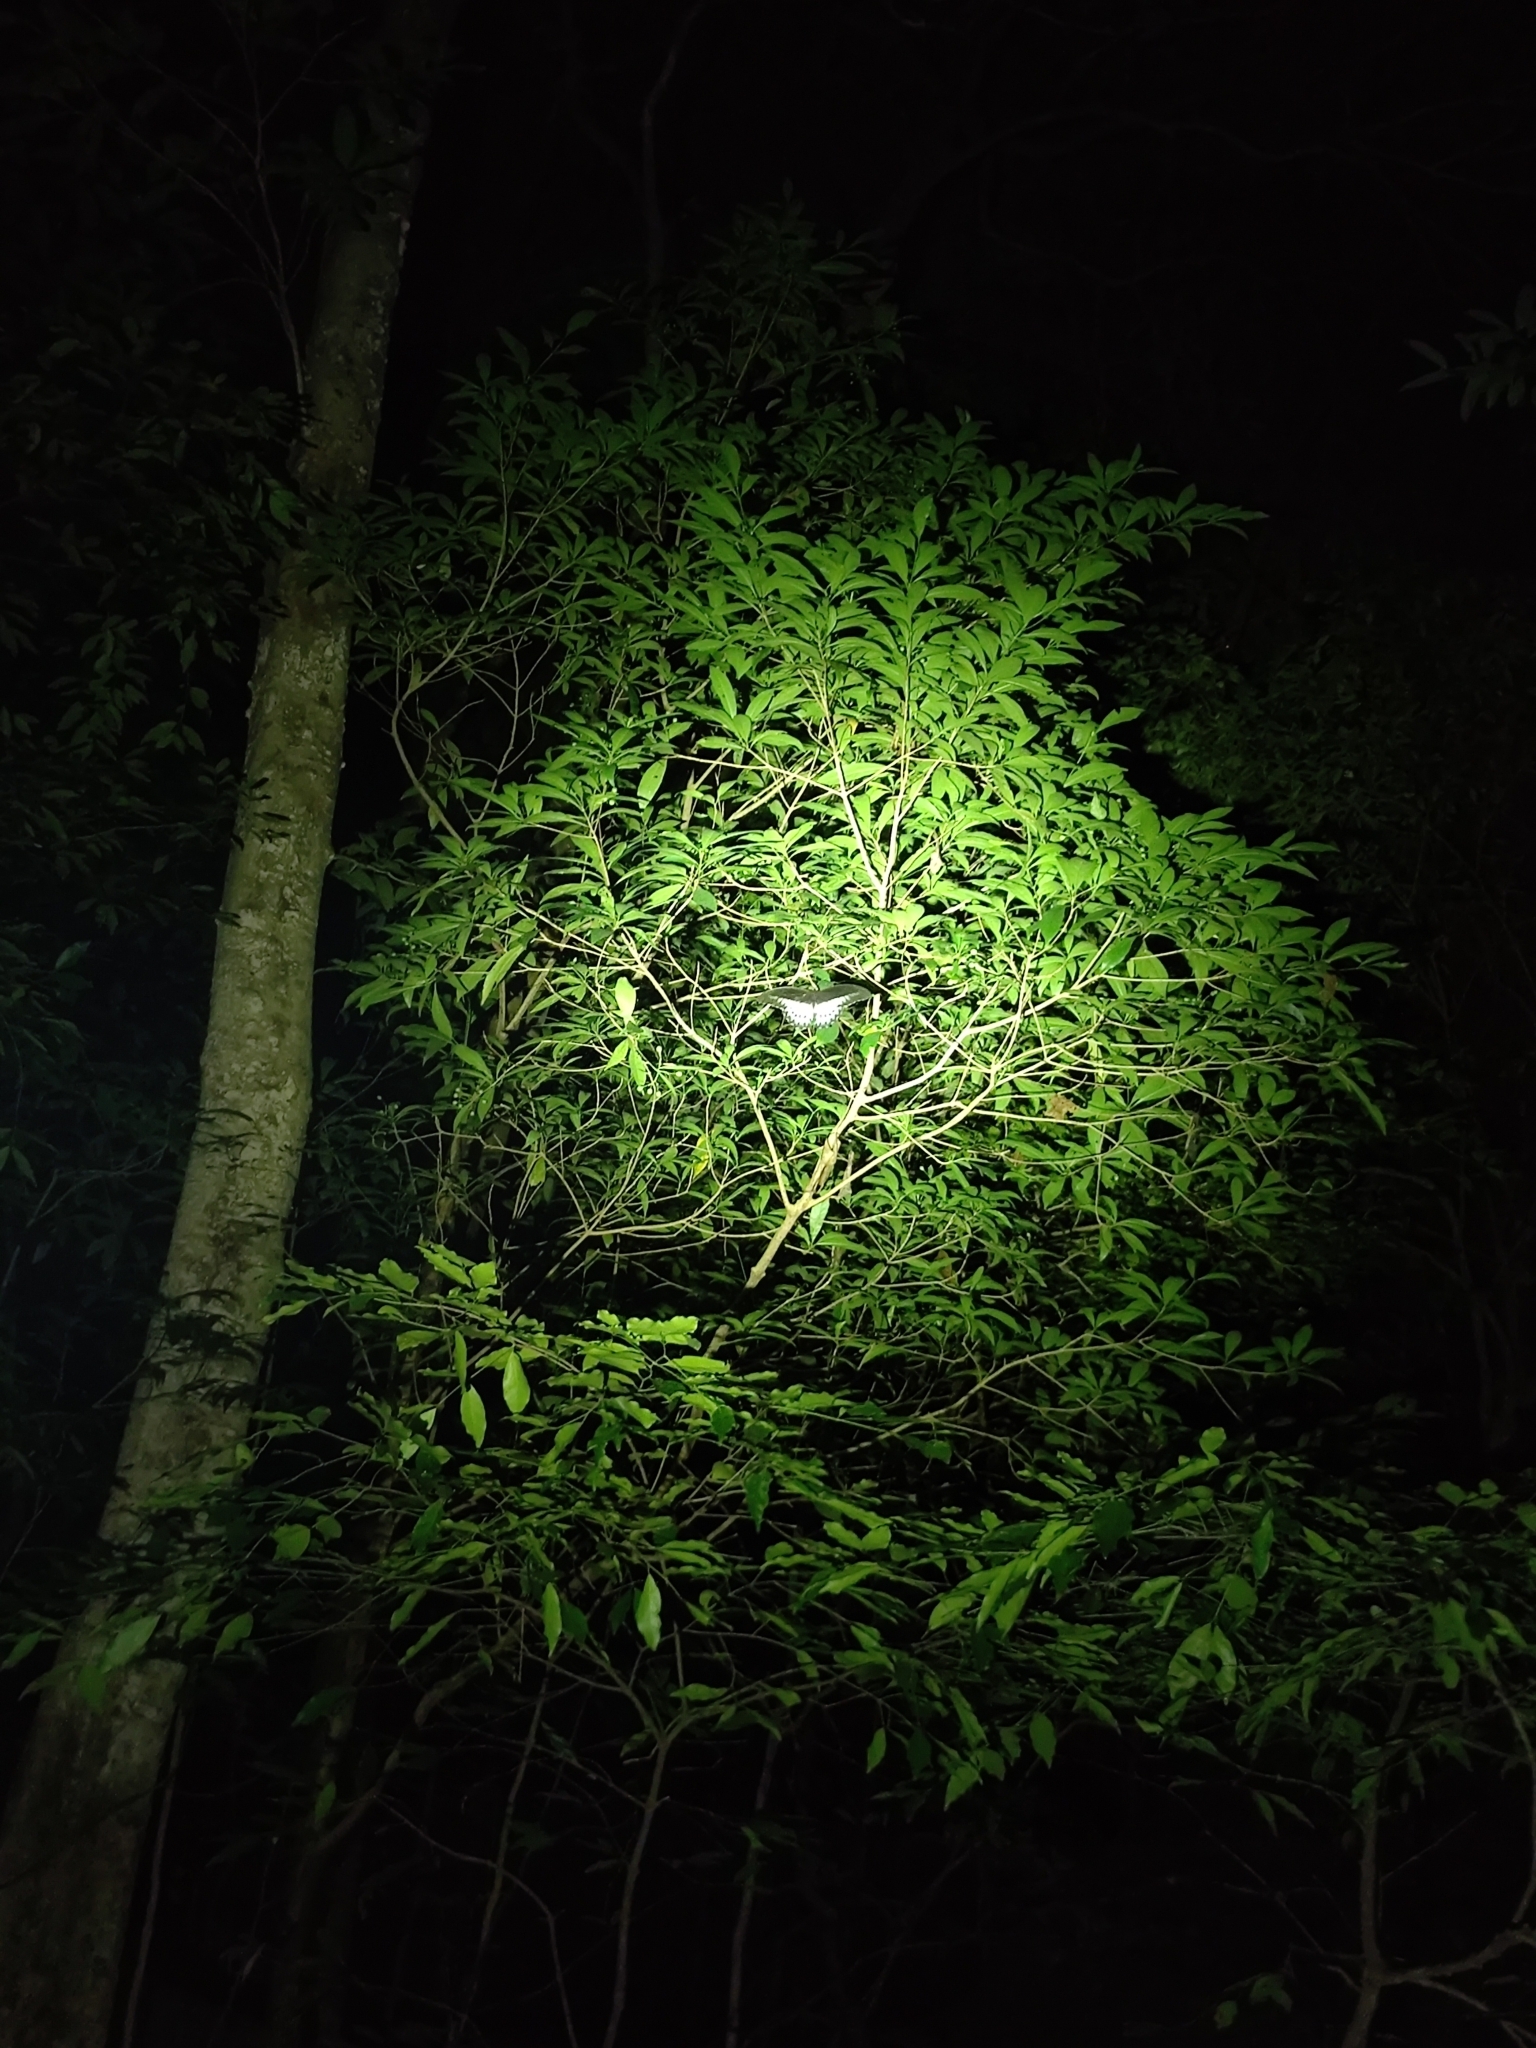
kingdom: Animalia
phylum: Arthropoda
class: Insecta
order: Lepidoptera
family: Papilionidae
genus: Papilio
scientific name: Papilio memnon
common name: Great mormon
